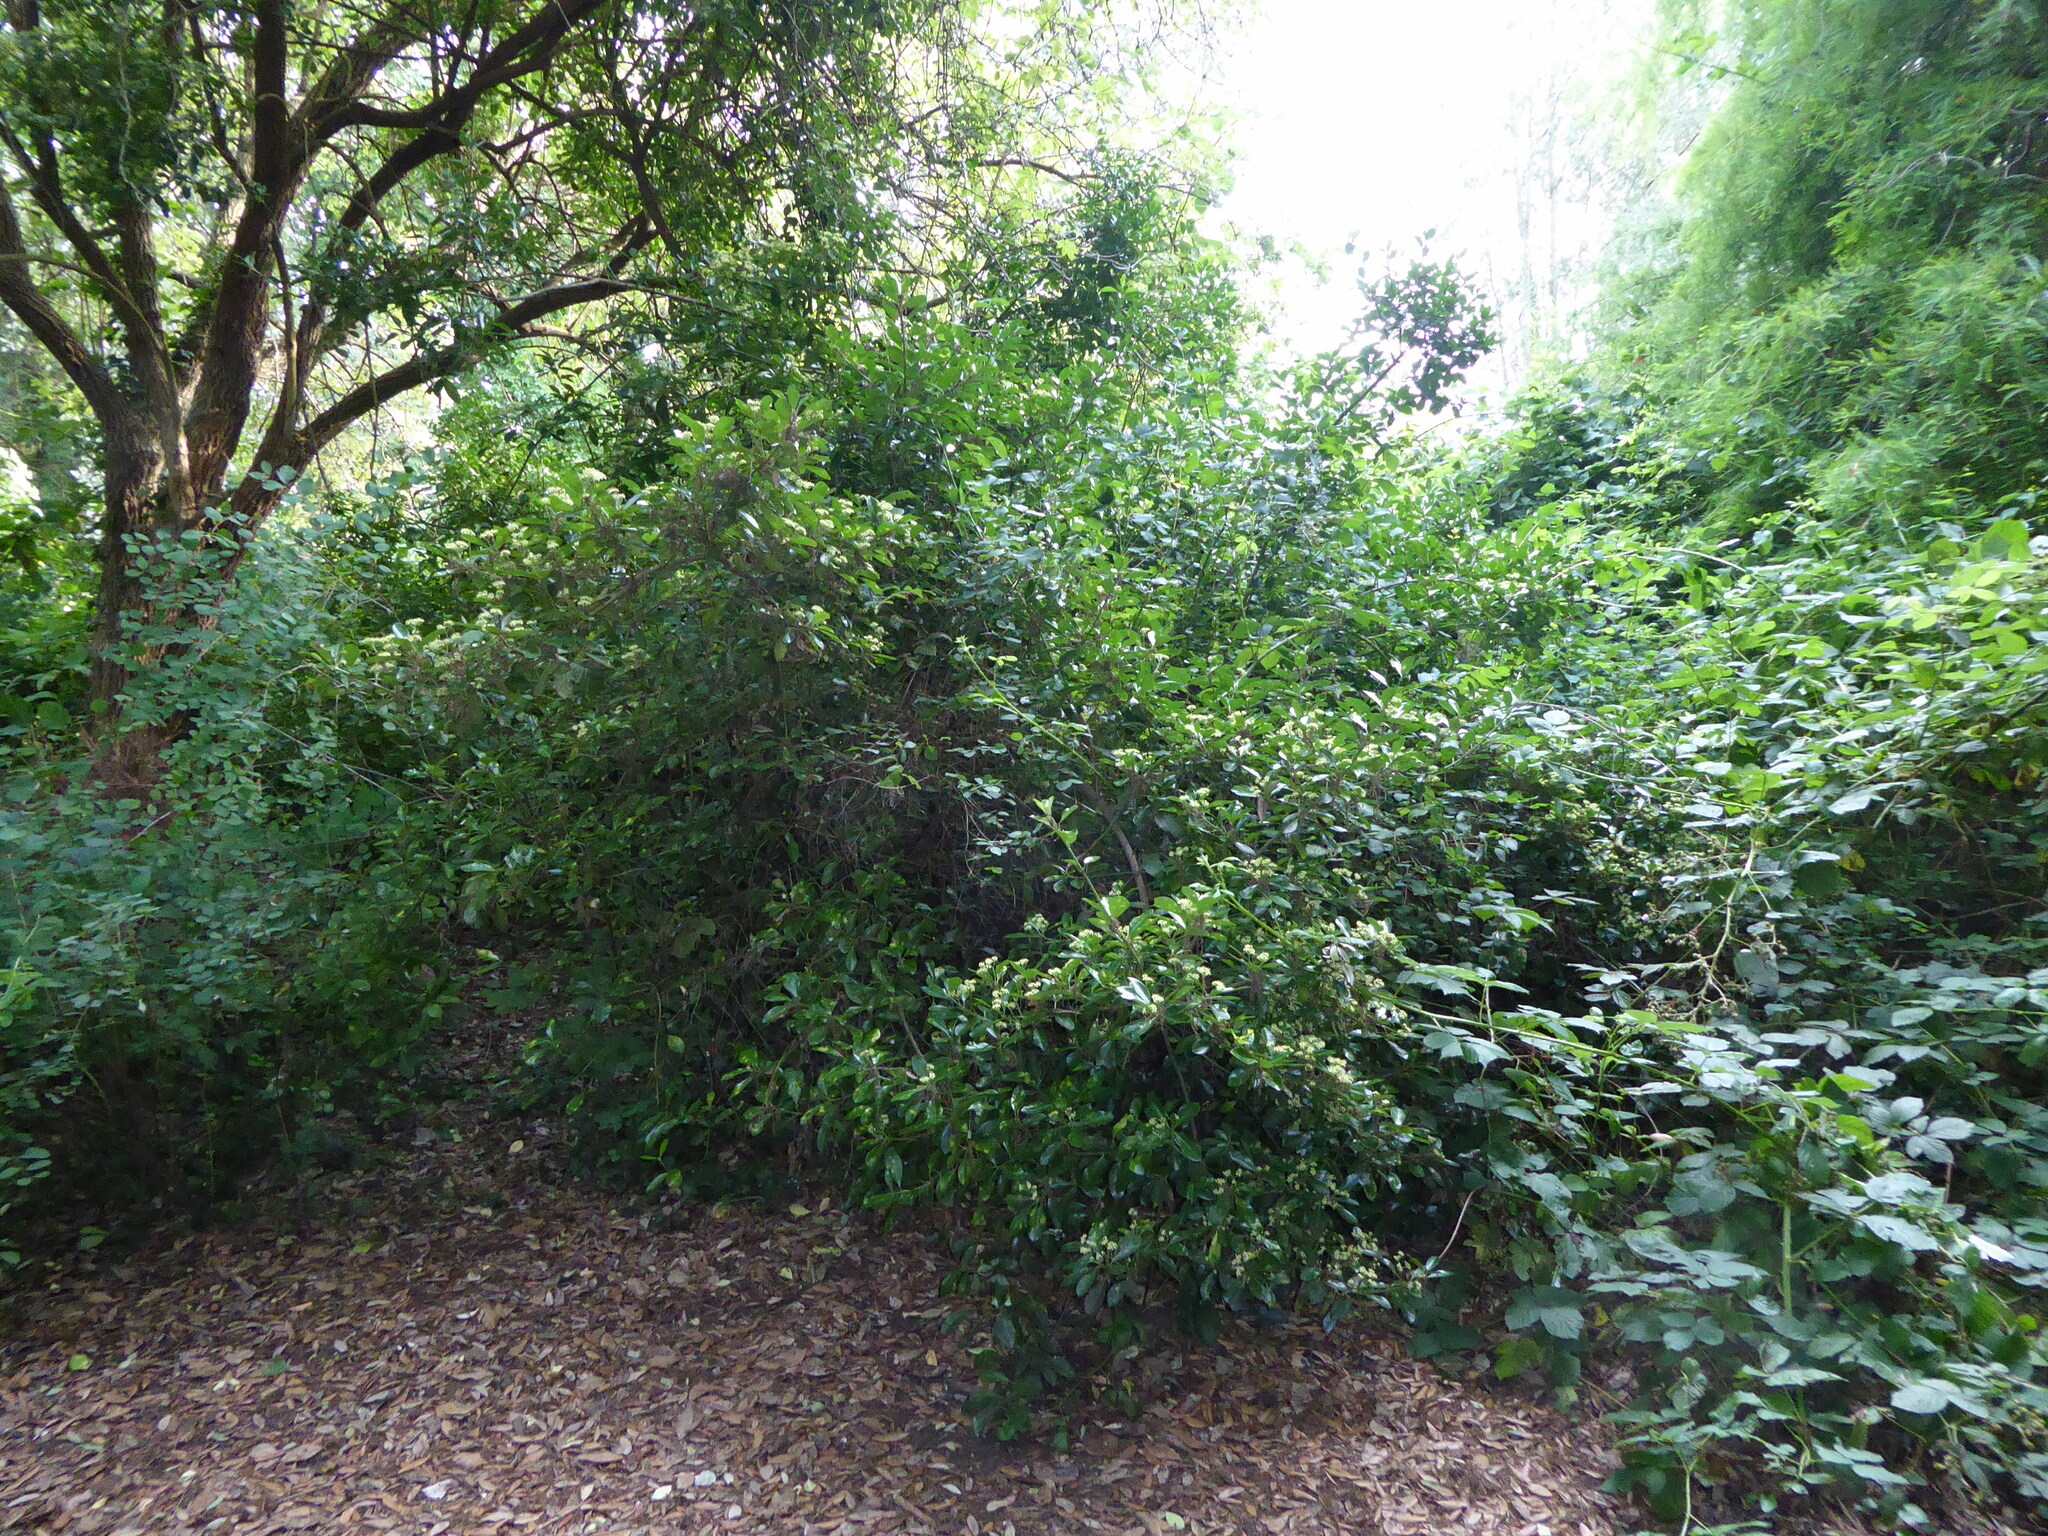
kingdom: Plantae
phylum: Tracheophyta
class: Magnoliopsida
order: Celastrales
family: Celastraceae
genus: Euonymus
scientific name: Euonymus japonicus
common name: Japanese spindletree
